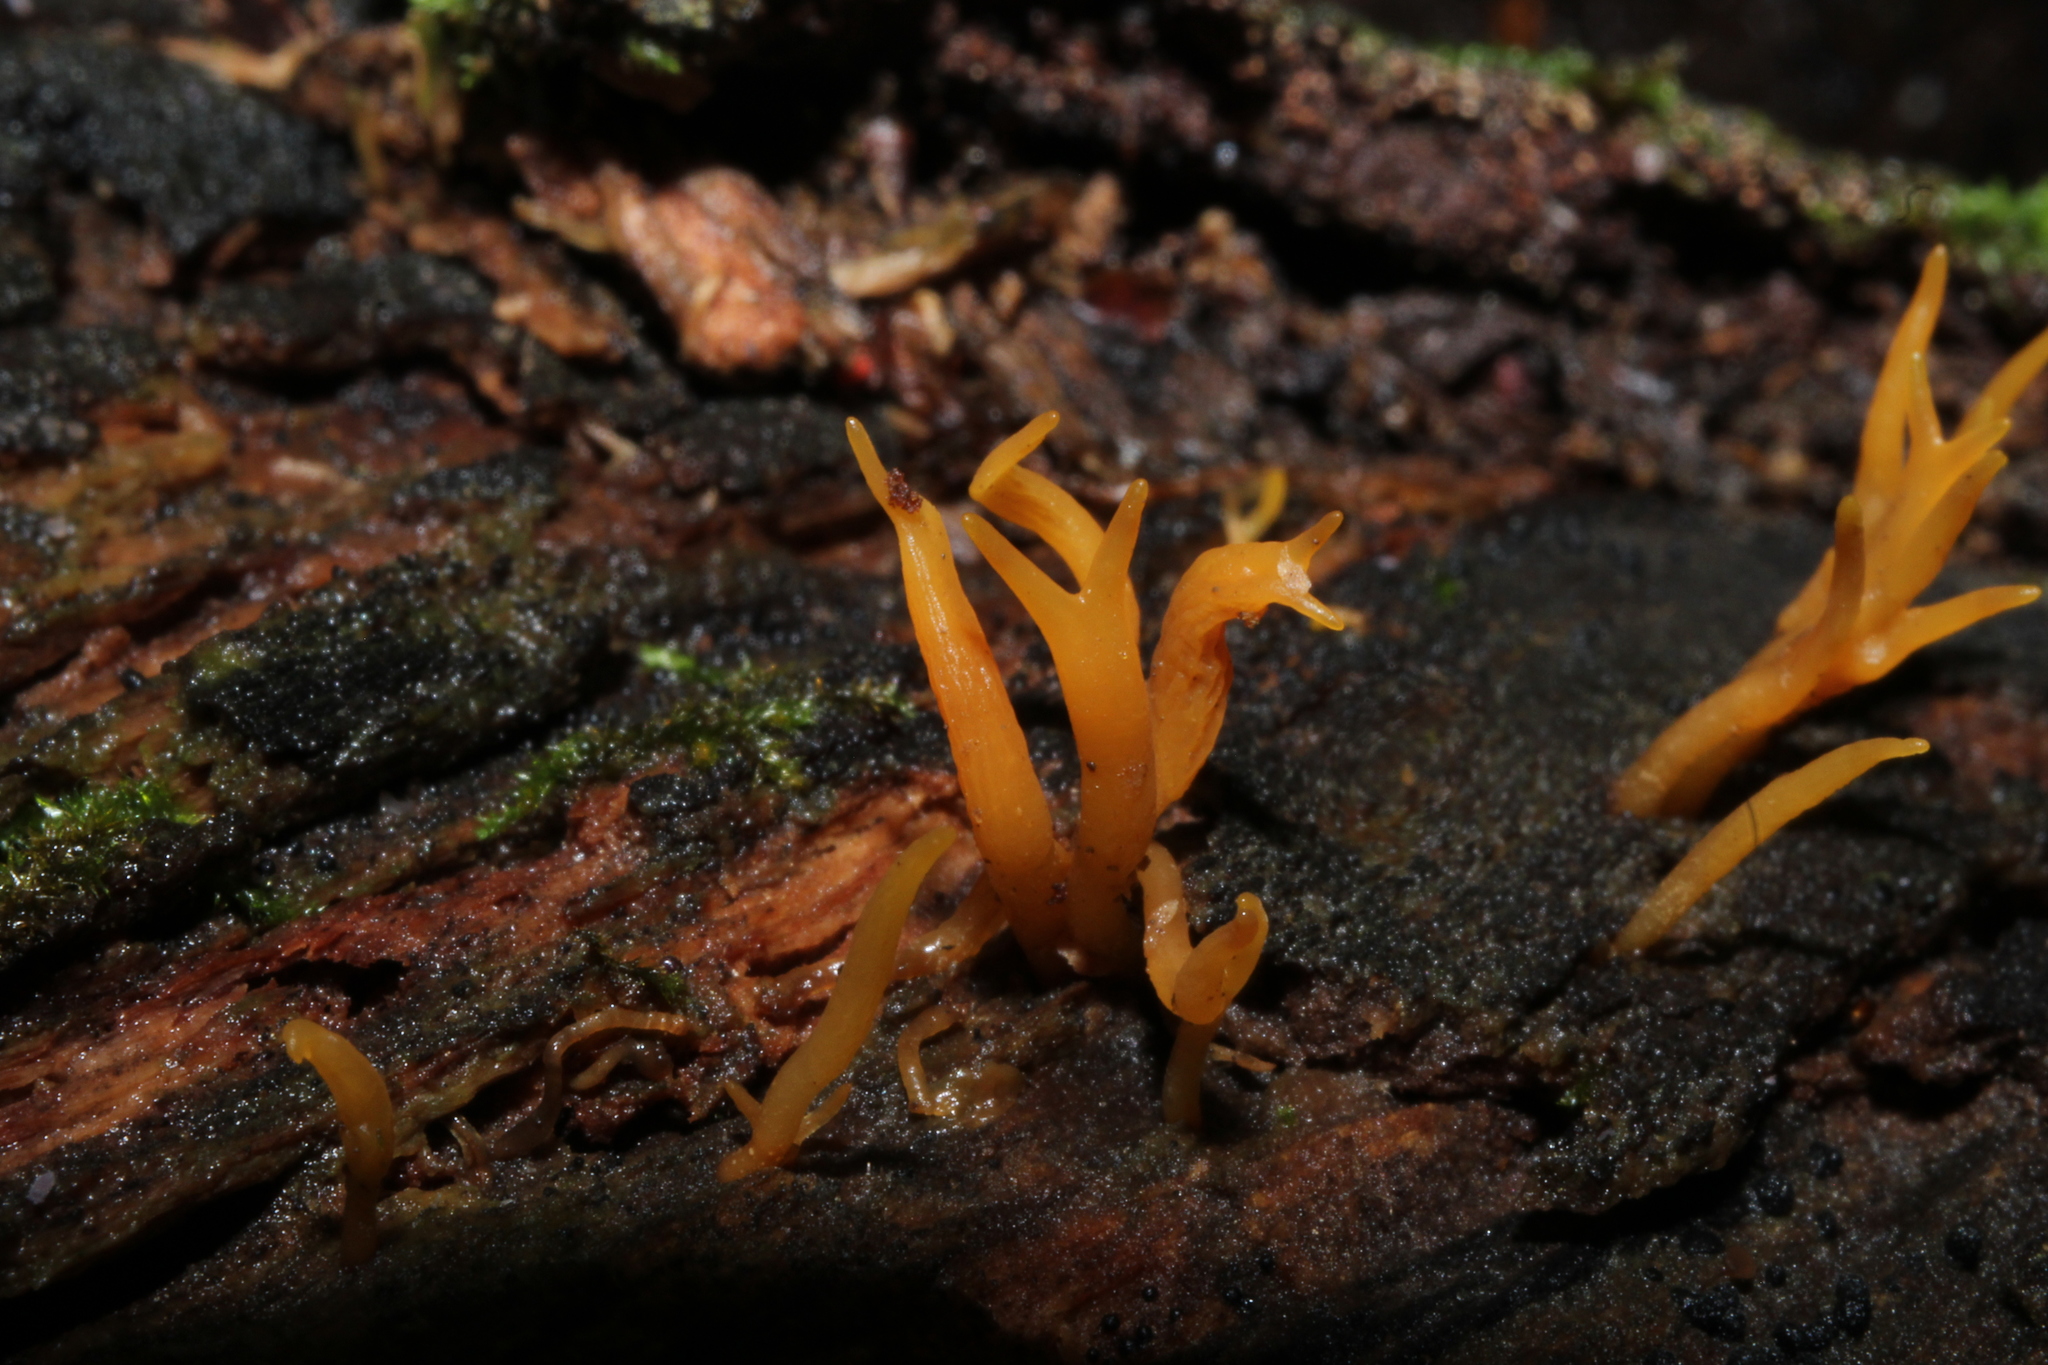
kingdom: Fungi
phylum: Basidiomycota
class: Dacrymycetes
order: Dacrymycetales
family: Dacrymycetaceae
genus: Calocera
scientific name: Calocera cornea
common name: Small stagshorn
